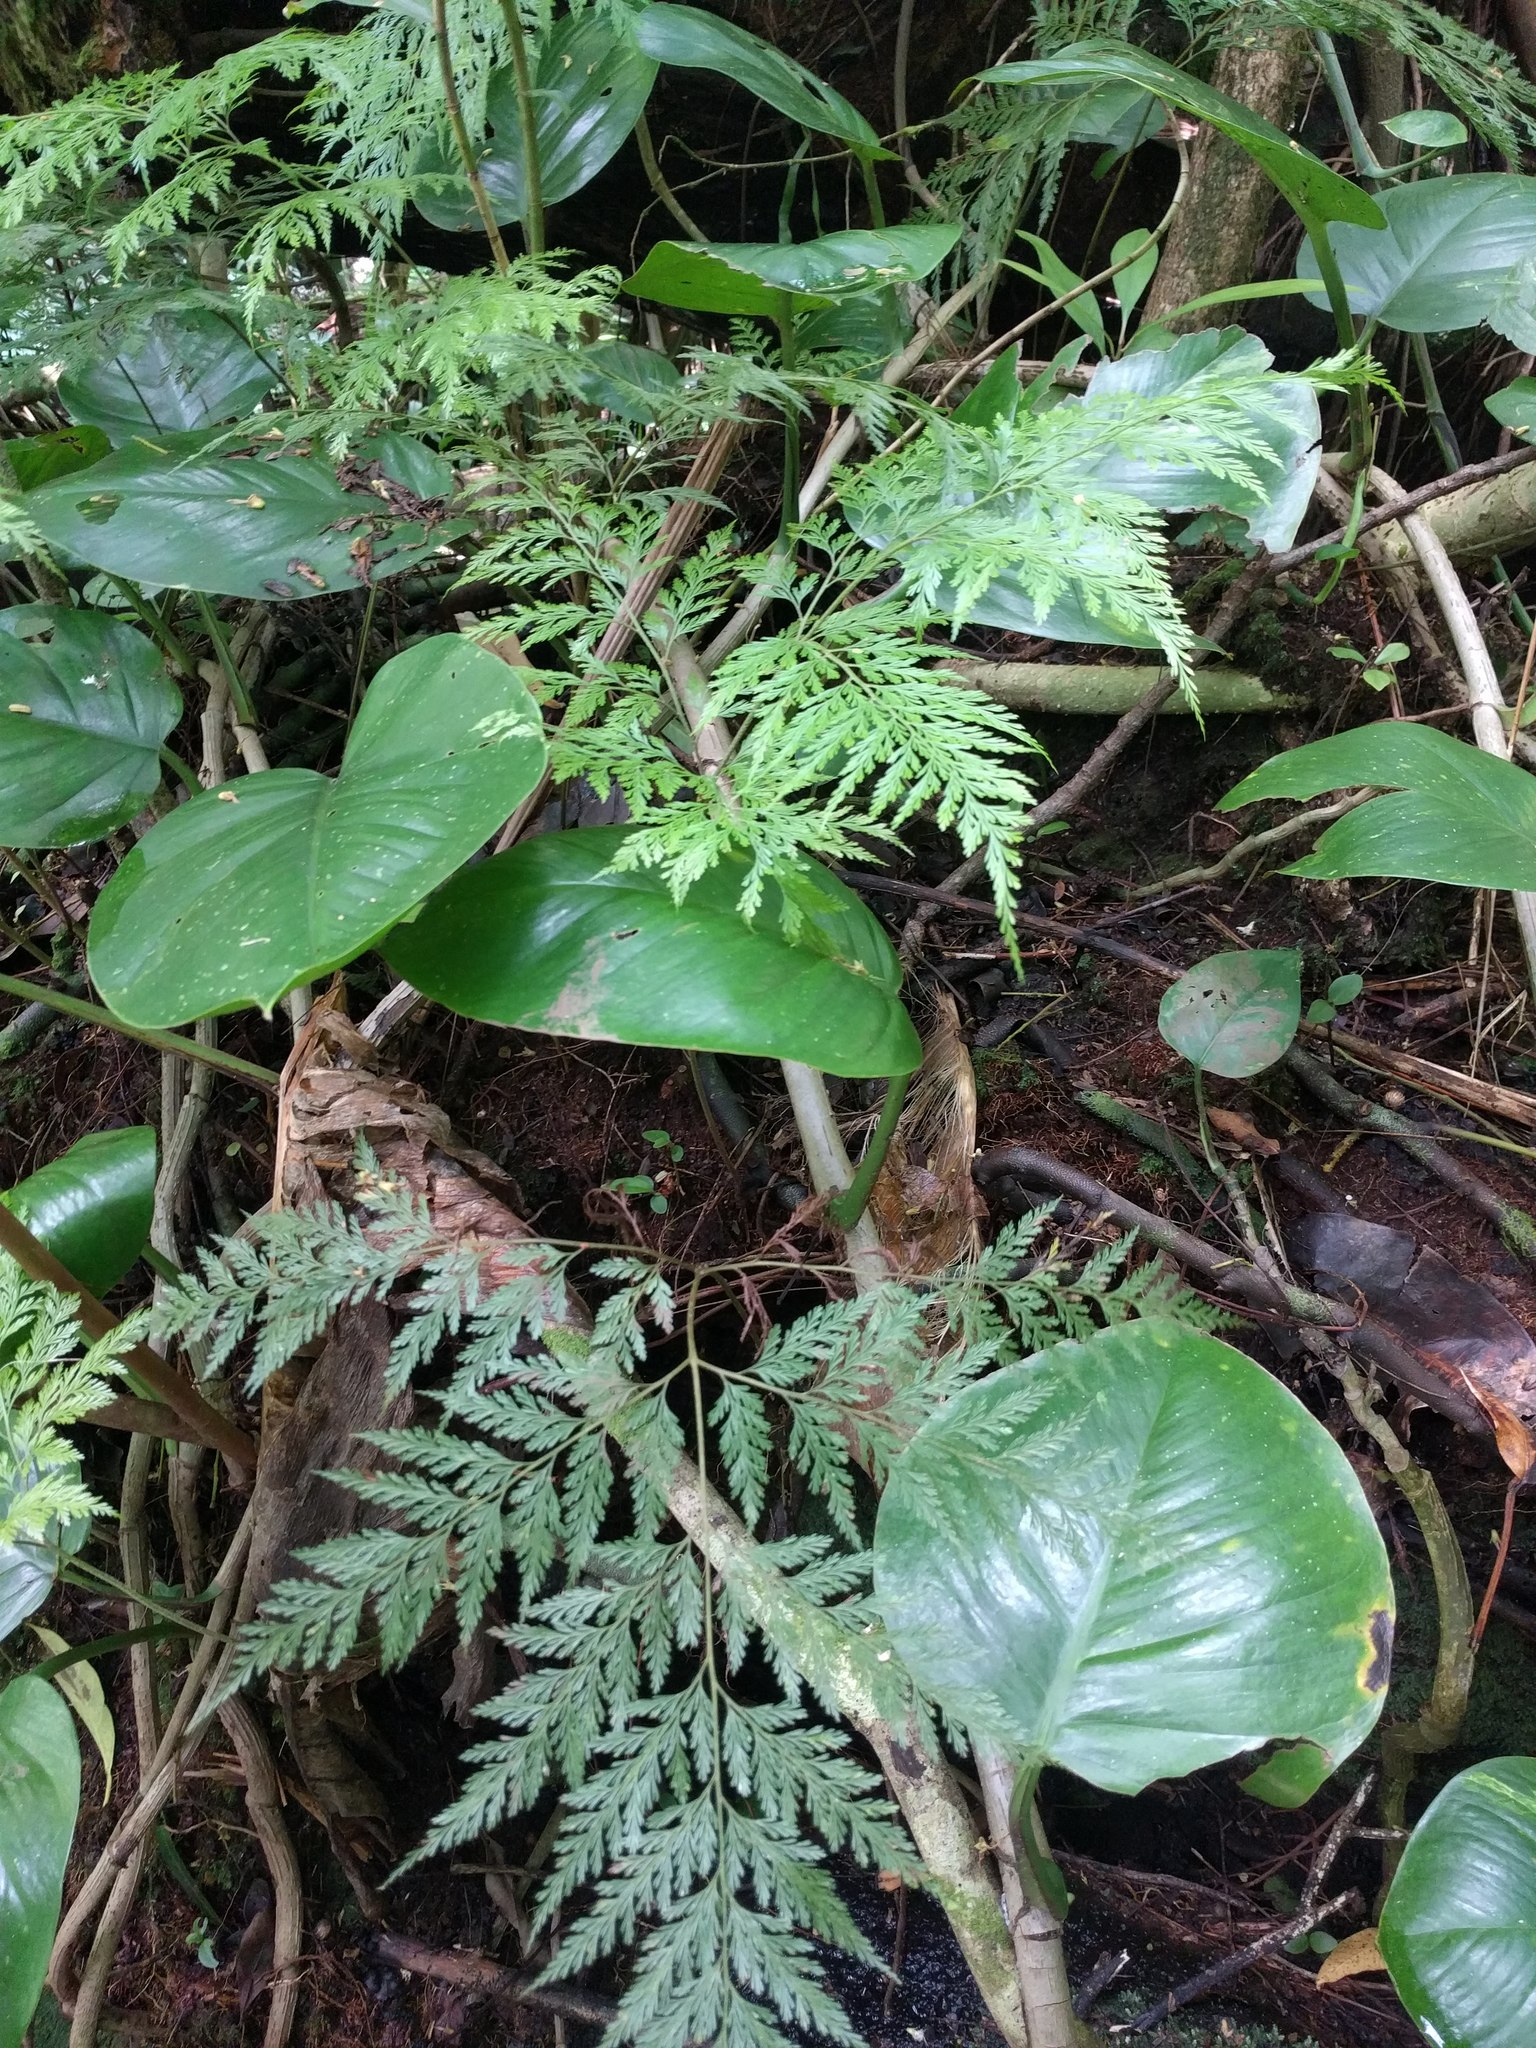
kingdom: Plantae
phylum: Tracheophyta
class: Polypodiopsida
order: Polypodiales
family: Davalliaceae
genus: Davallia
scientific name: Davallia fejeensis
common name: Lacy hare's-foot fern
